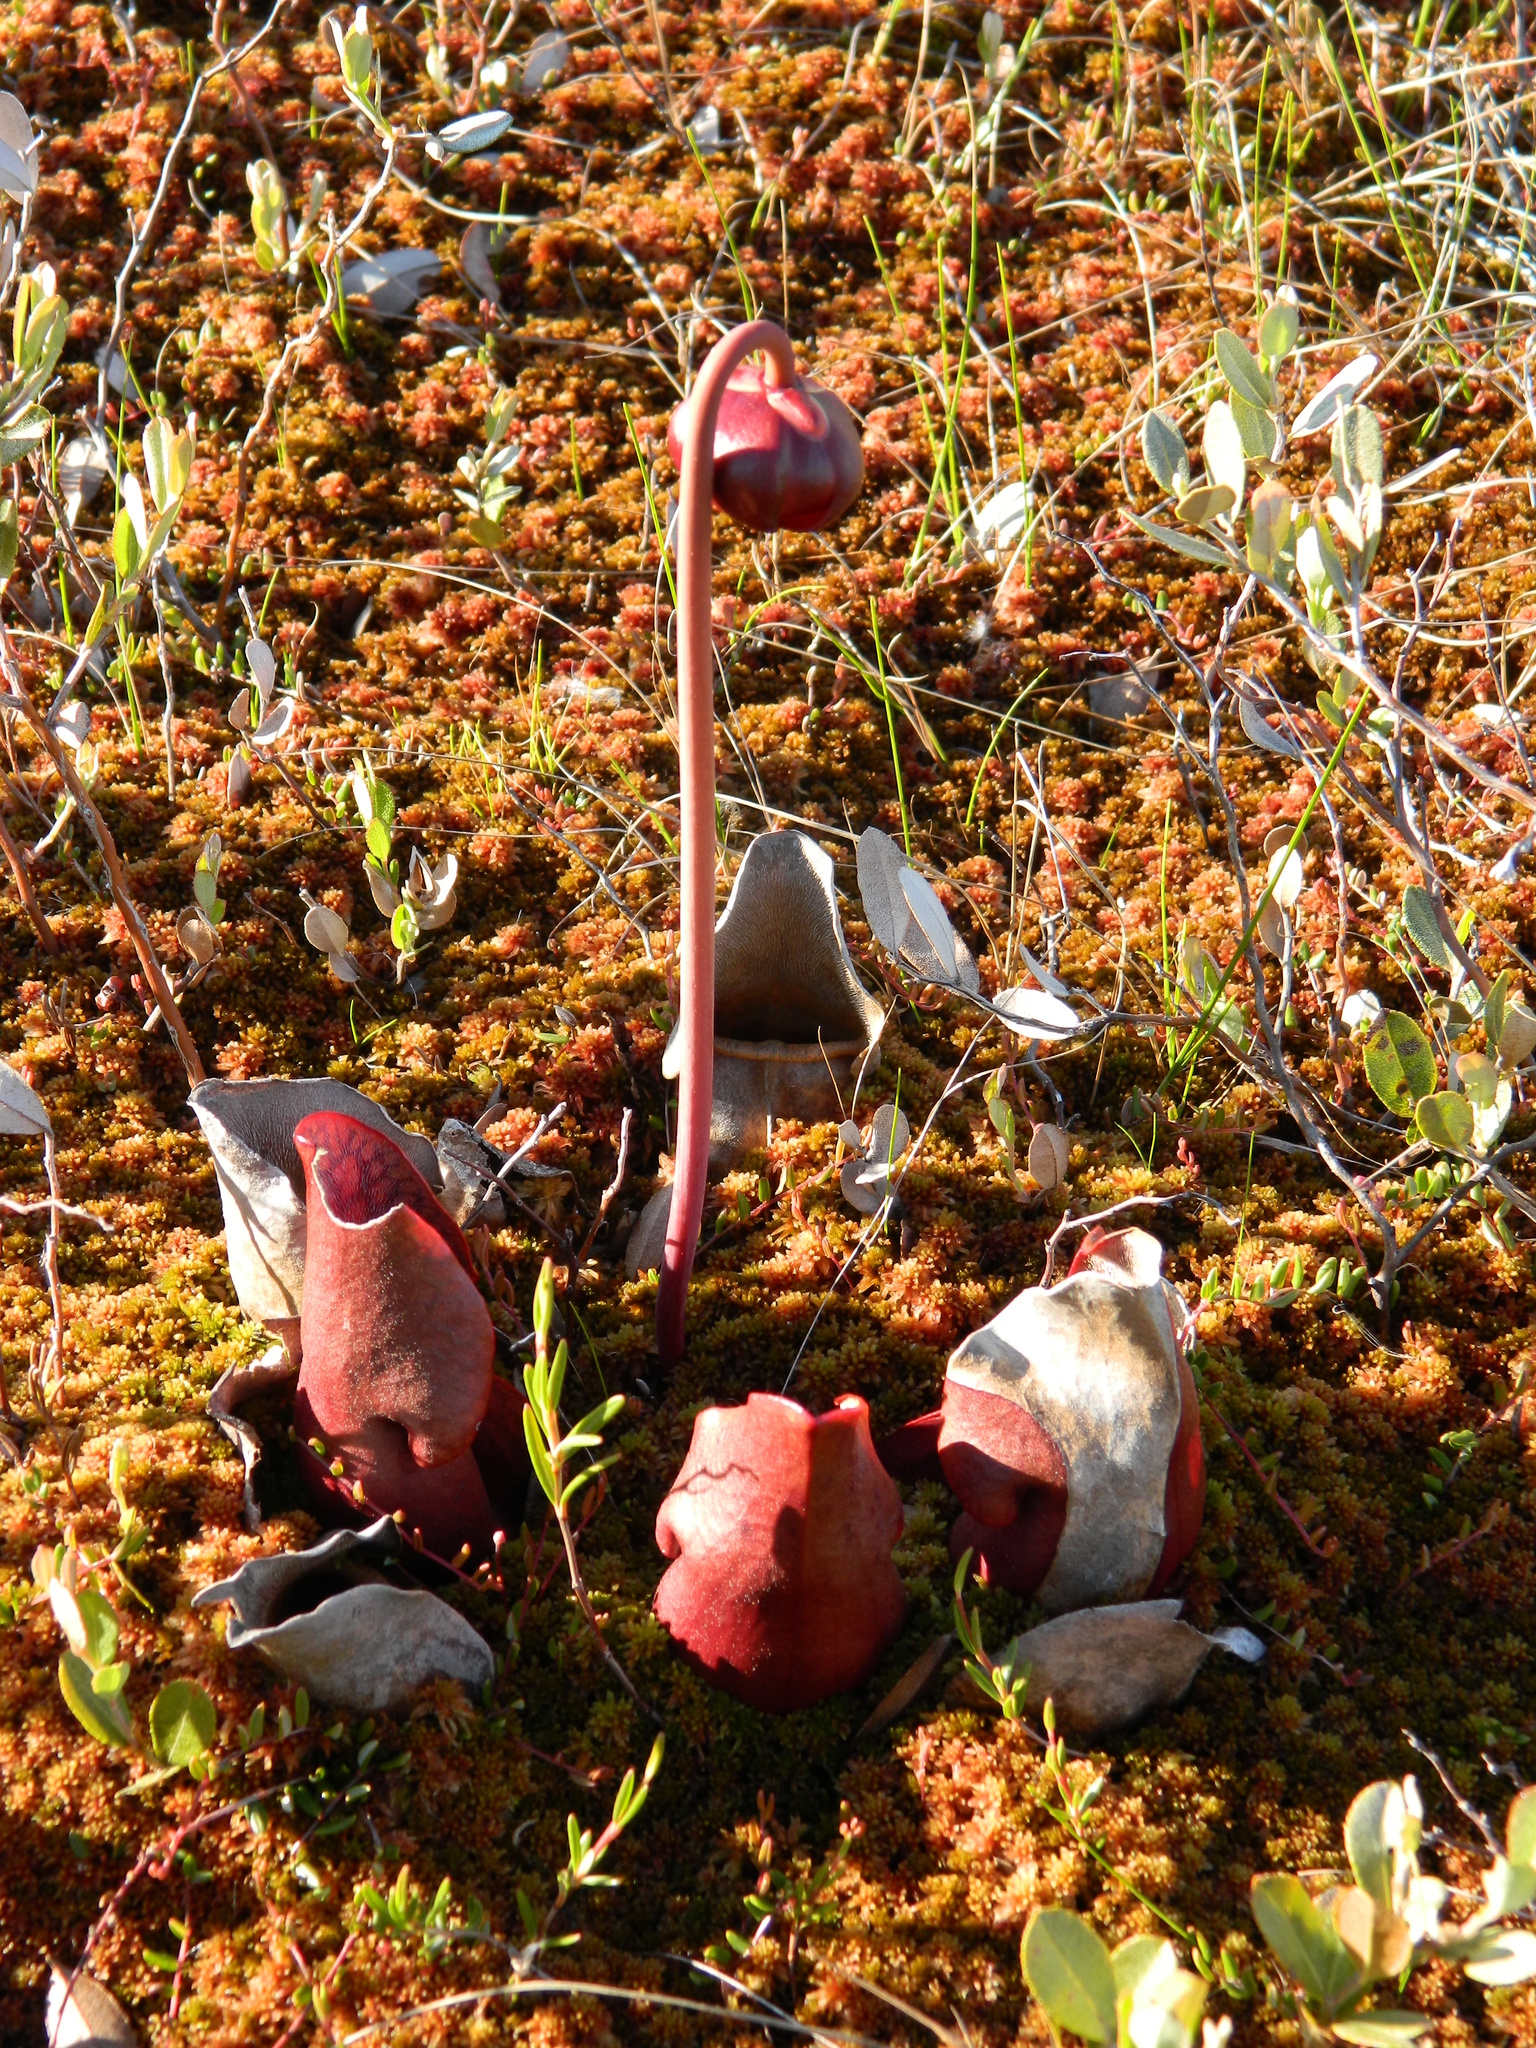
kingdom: Plantae
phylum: Tracheophyta
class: Magnoliopsida
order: Ericales
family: Sarraceniaceae
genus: Sarracenia
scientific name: Sarracenia purpurea
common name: Pitcherplant
